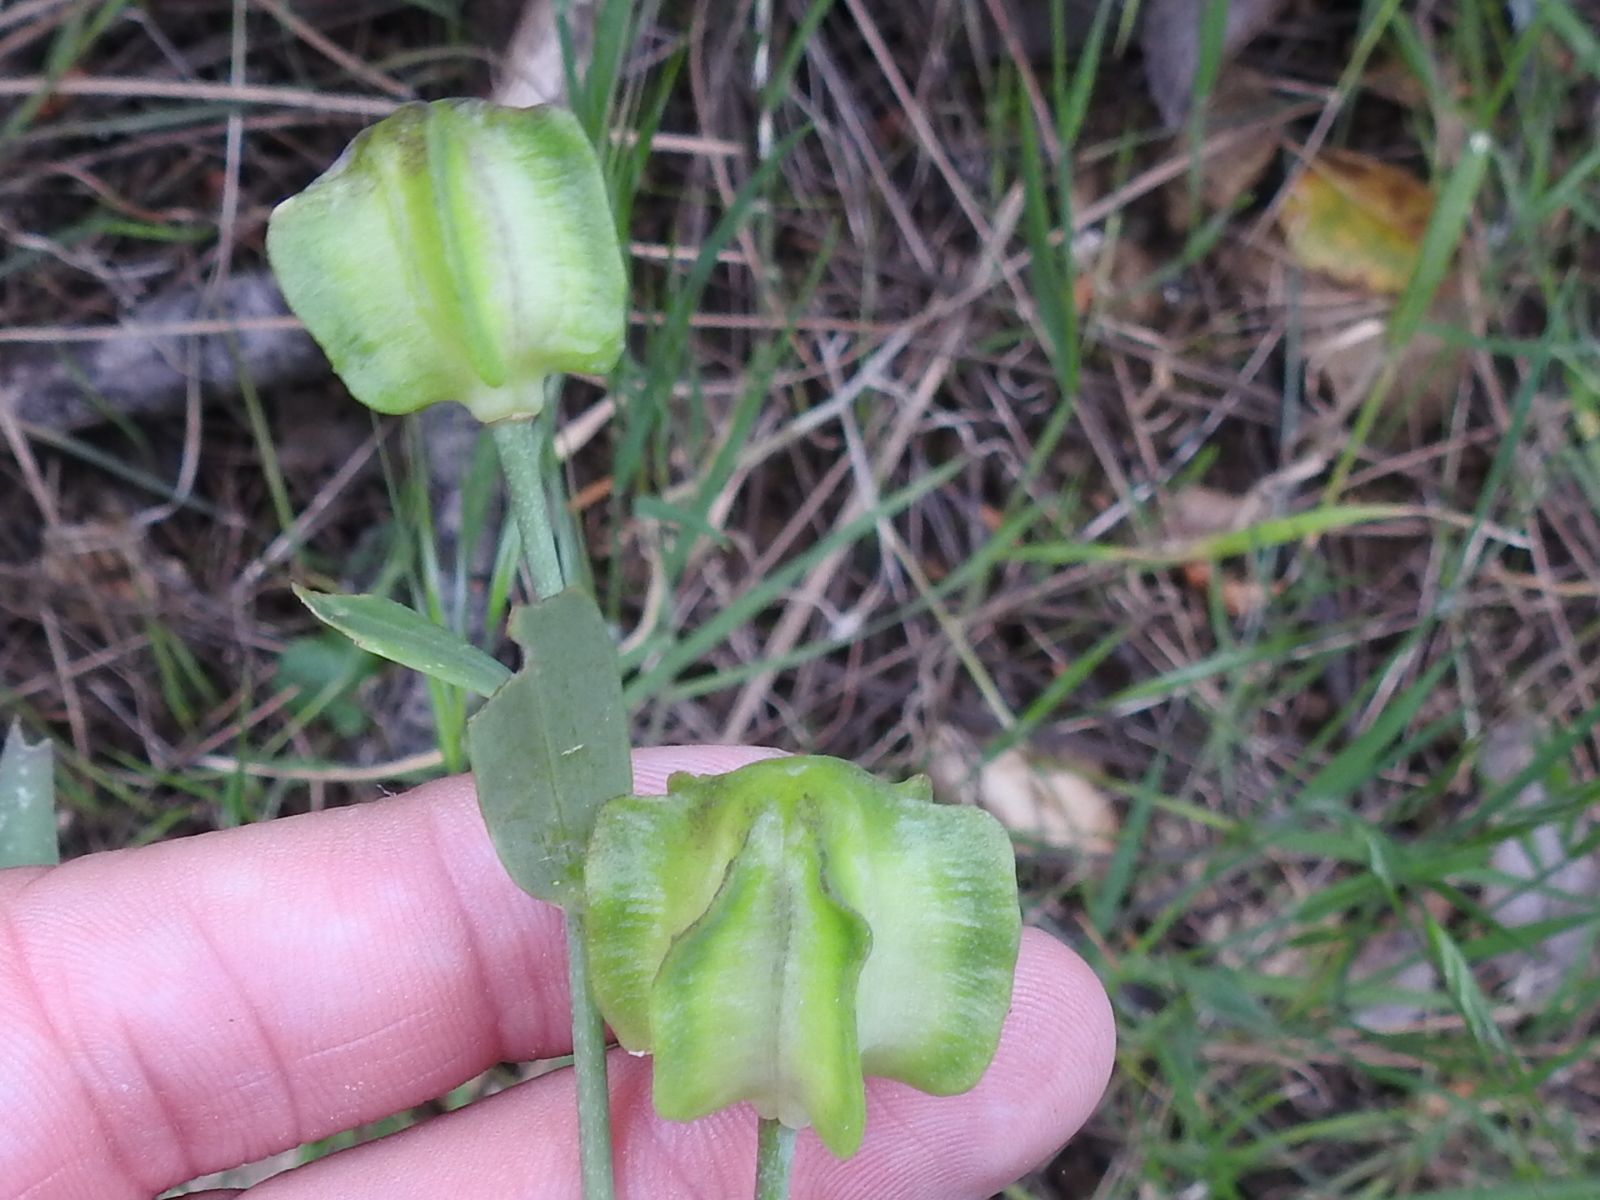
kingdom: Plantae
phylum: Tracheophyta
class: Liliopsida
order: Liliales
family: Liliaceae
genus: Fritillaria
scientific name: Fritillaria affinis
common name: Ojai fritillary
